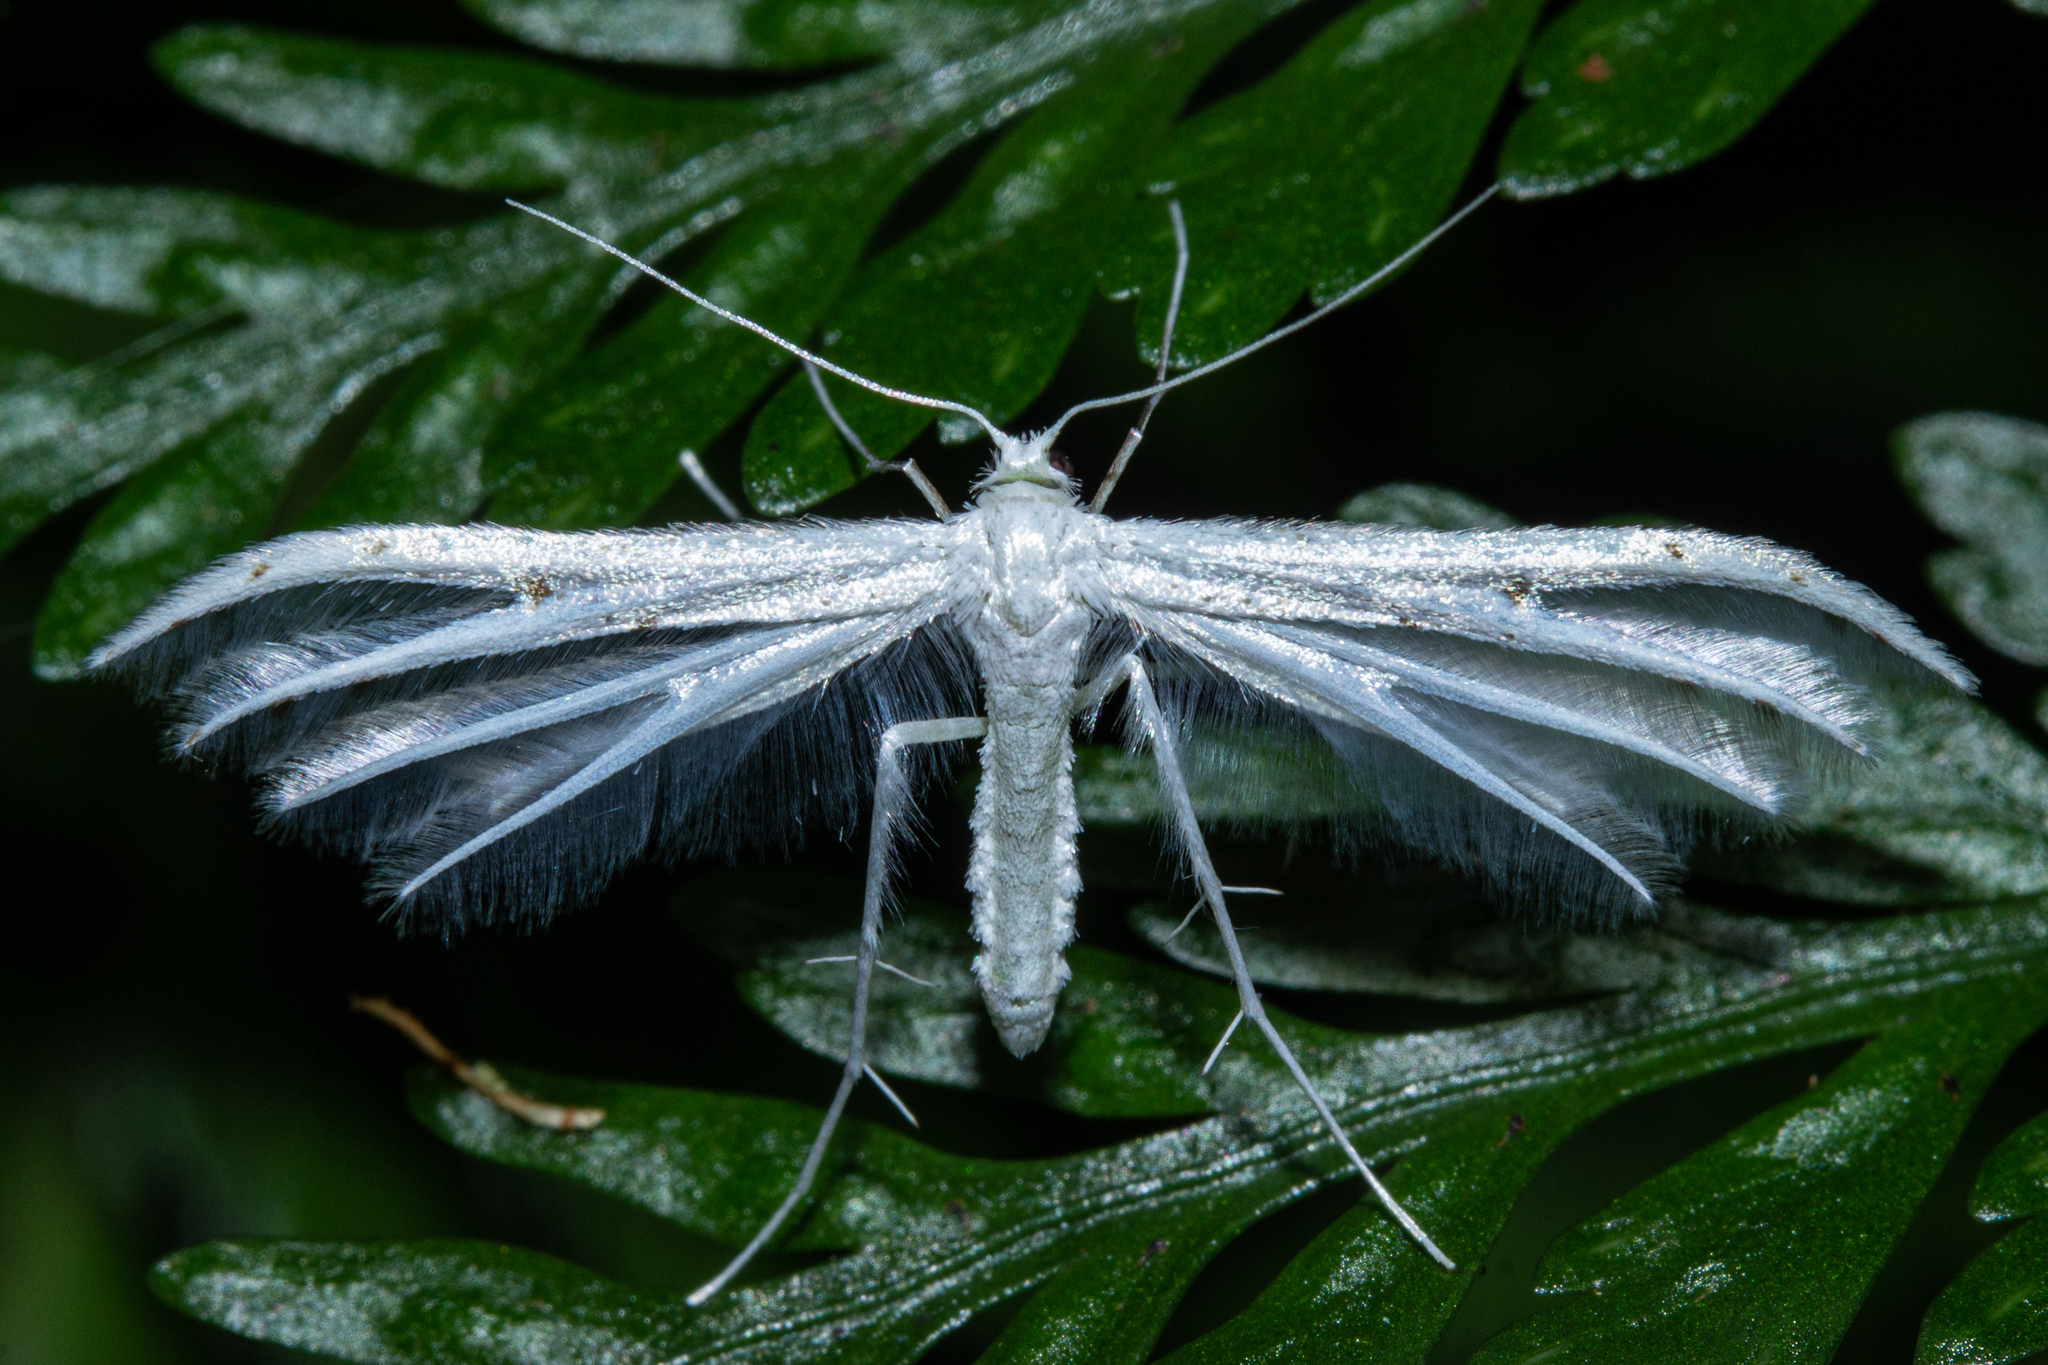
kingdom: Animalia
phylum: Arthropoda
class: Insecta
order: Lepidoptera
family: Pterophoridae
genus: Pterophorus
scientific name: Pterophorus monospilalis
